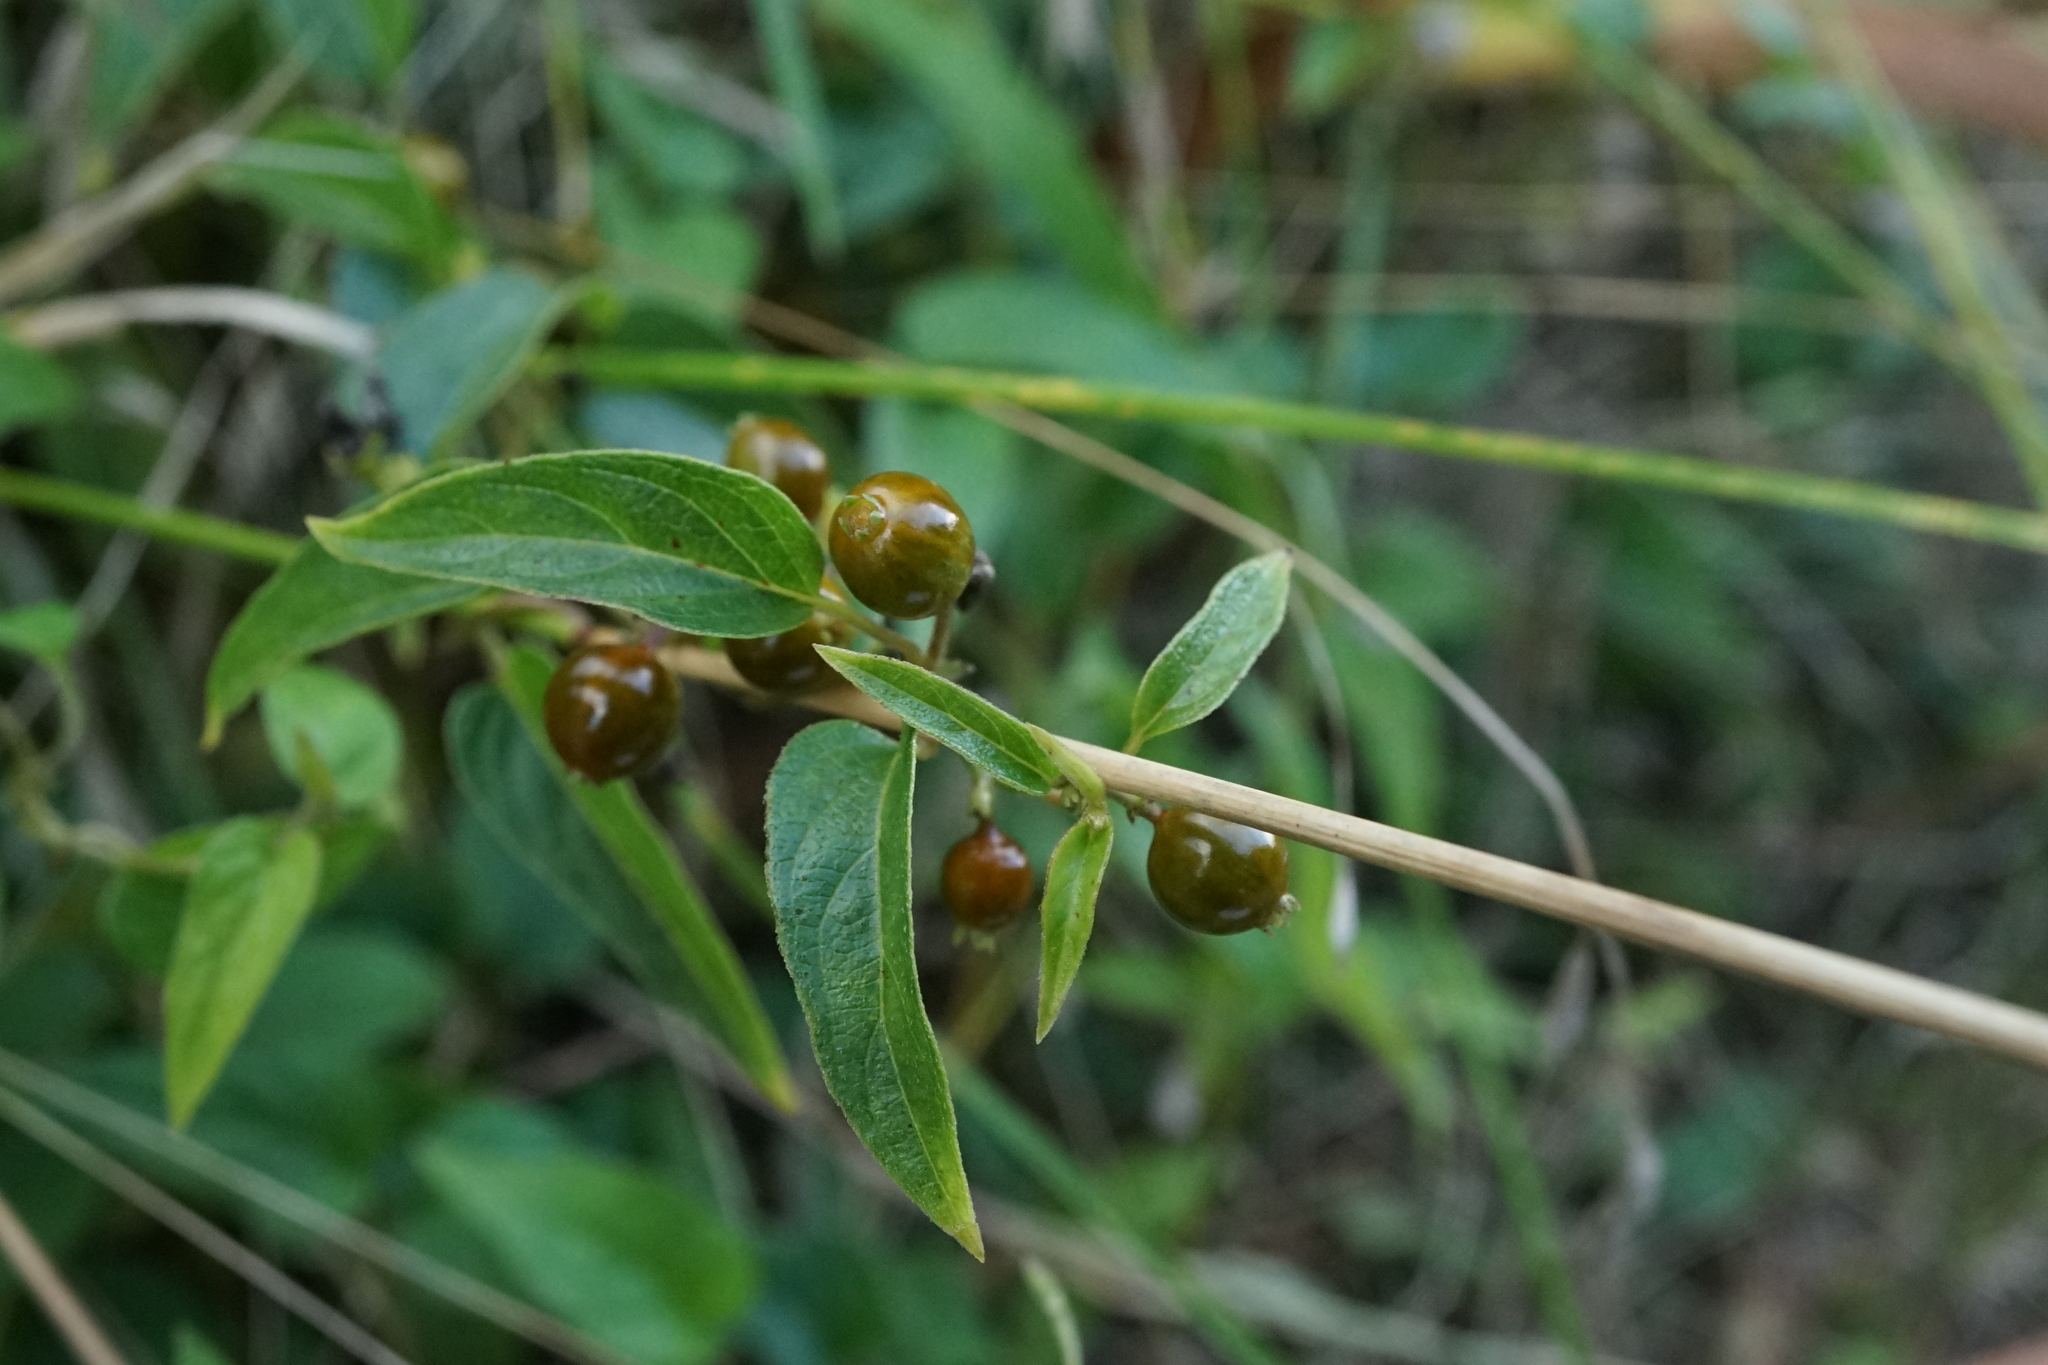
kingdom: Plantae
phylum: Tracheophyta
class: Magnoliopsida
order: Gentianales
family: Rubiaceae
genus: Paederia
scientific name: Paederia foetida
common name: Stinkvine
